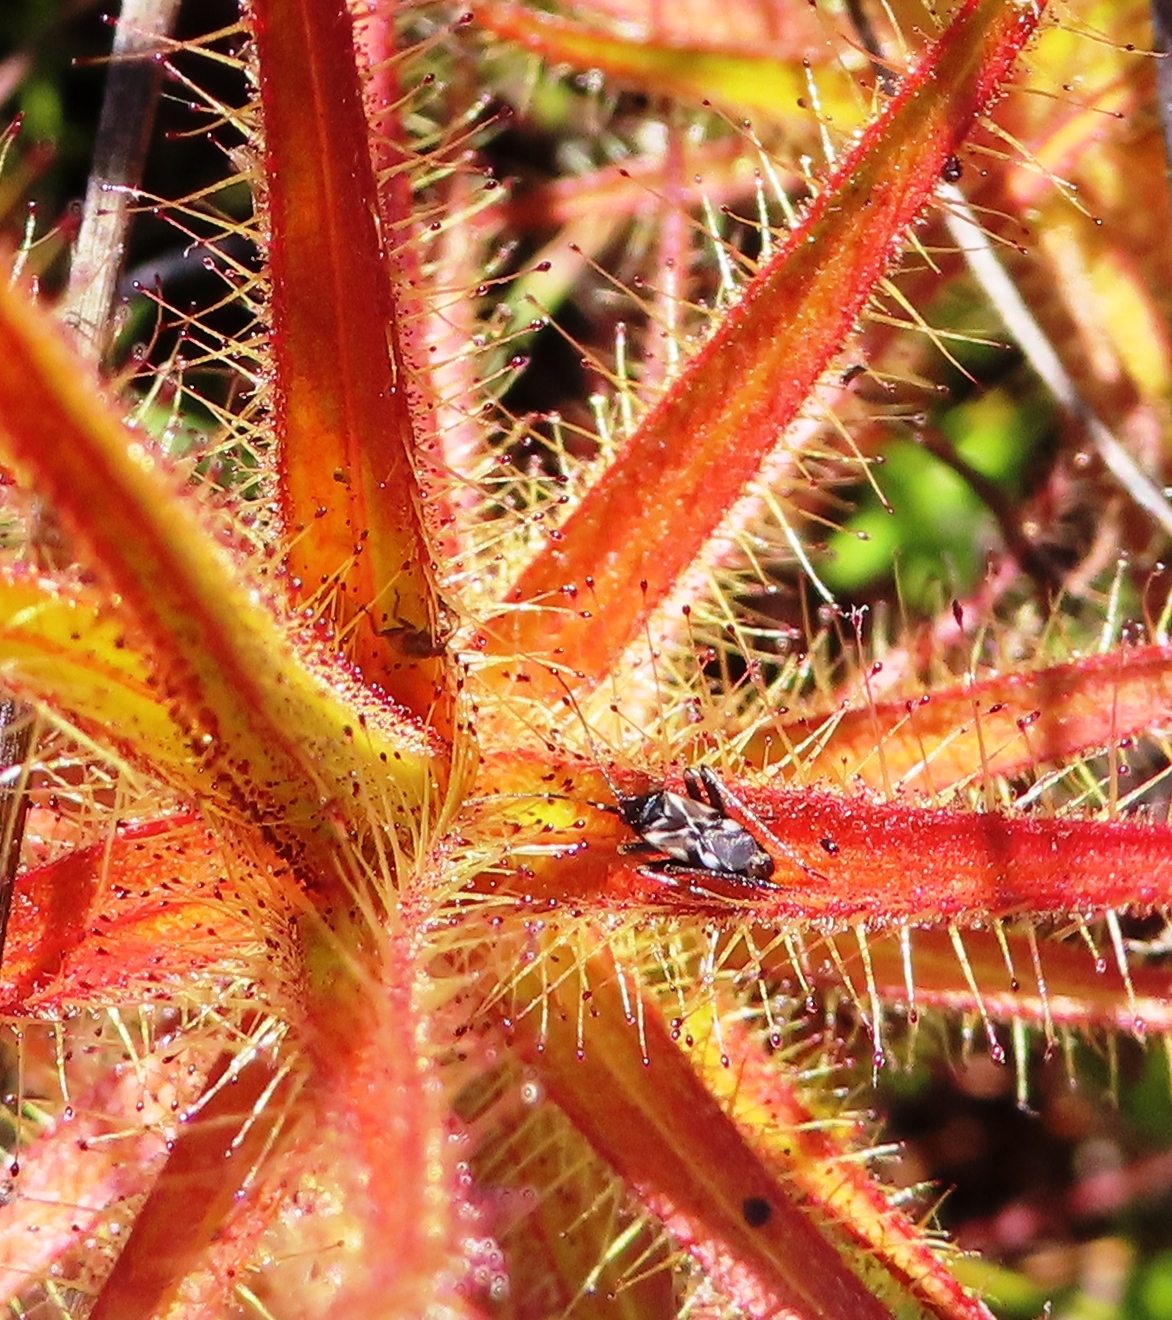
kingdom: Animalia
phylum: Arthropoda
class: Insecta
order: Hemiptera
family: Miridae
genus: Pameridea
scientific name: Pameridea roridulae
